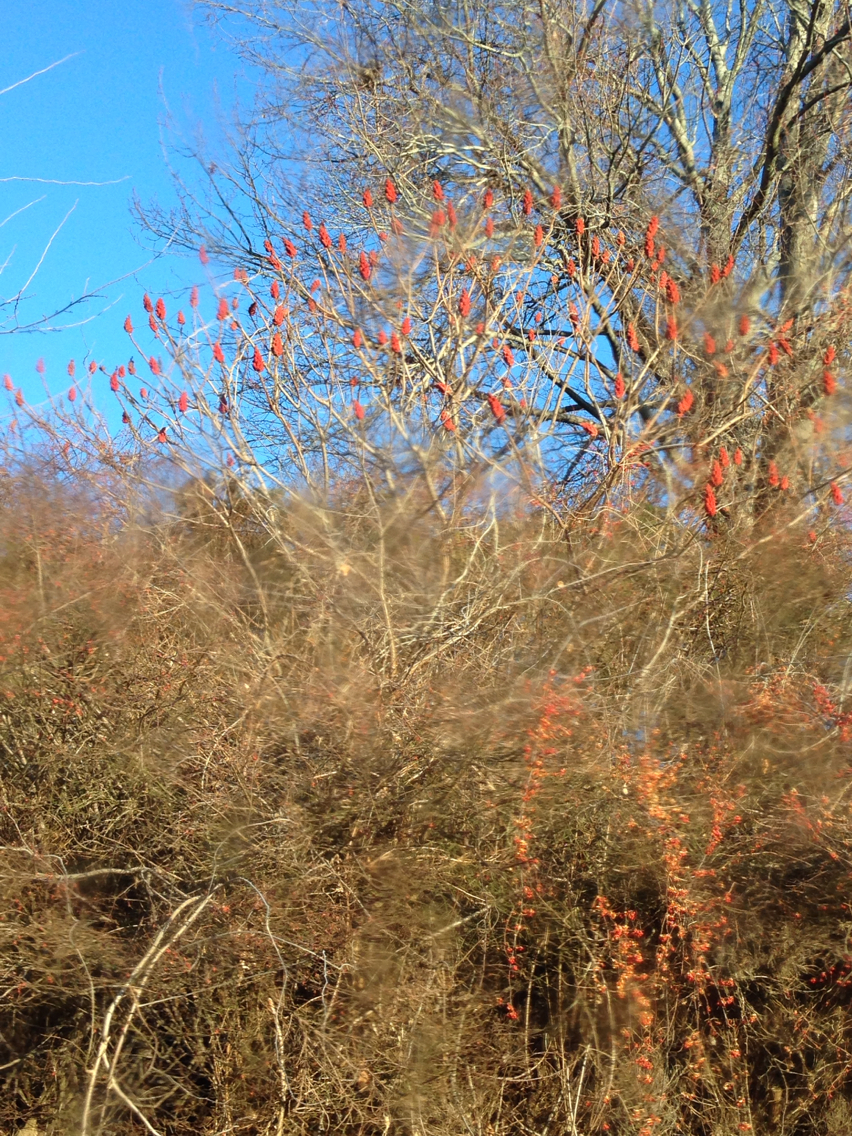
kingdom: Plantae
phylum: Tracheophyta
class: Magnoliopsida
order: Sapindales
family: Anacardiaceae
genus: Rhus
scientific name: Rhus typhina
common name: Staghorn sumac
